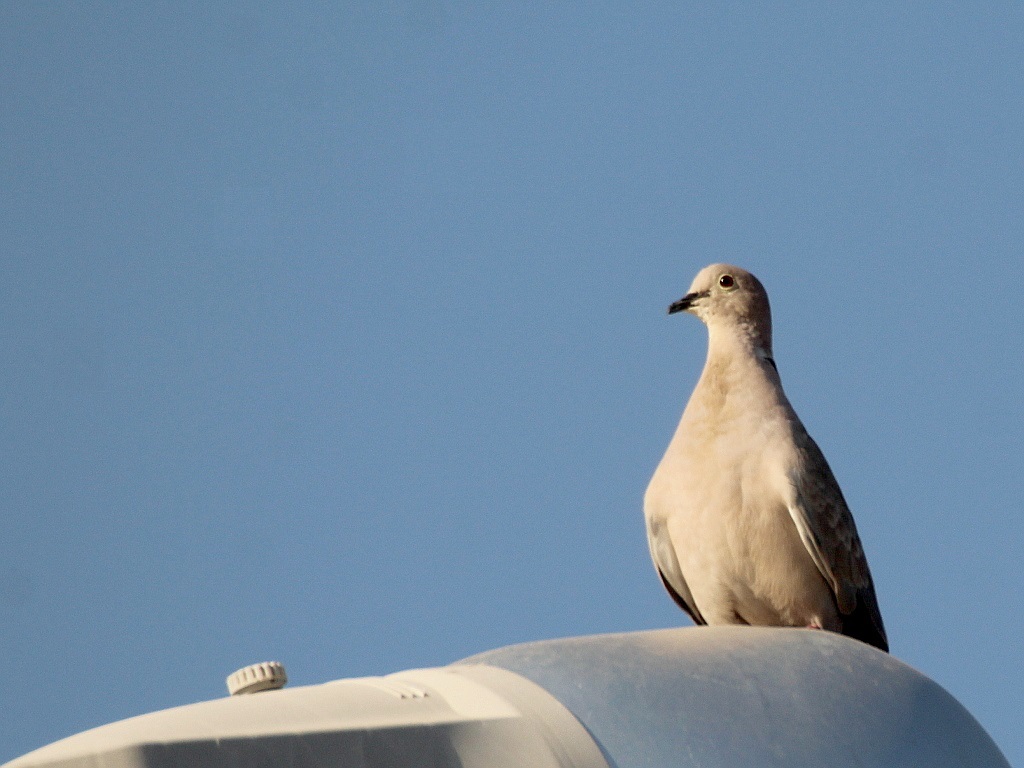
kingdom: Animalia
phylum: Chordata
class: Aves
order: Columbiformes
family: Columbidae
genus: Streptopelia
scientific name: Streptopelia decaocto
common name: Eurasian collared dove
